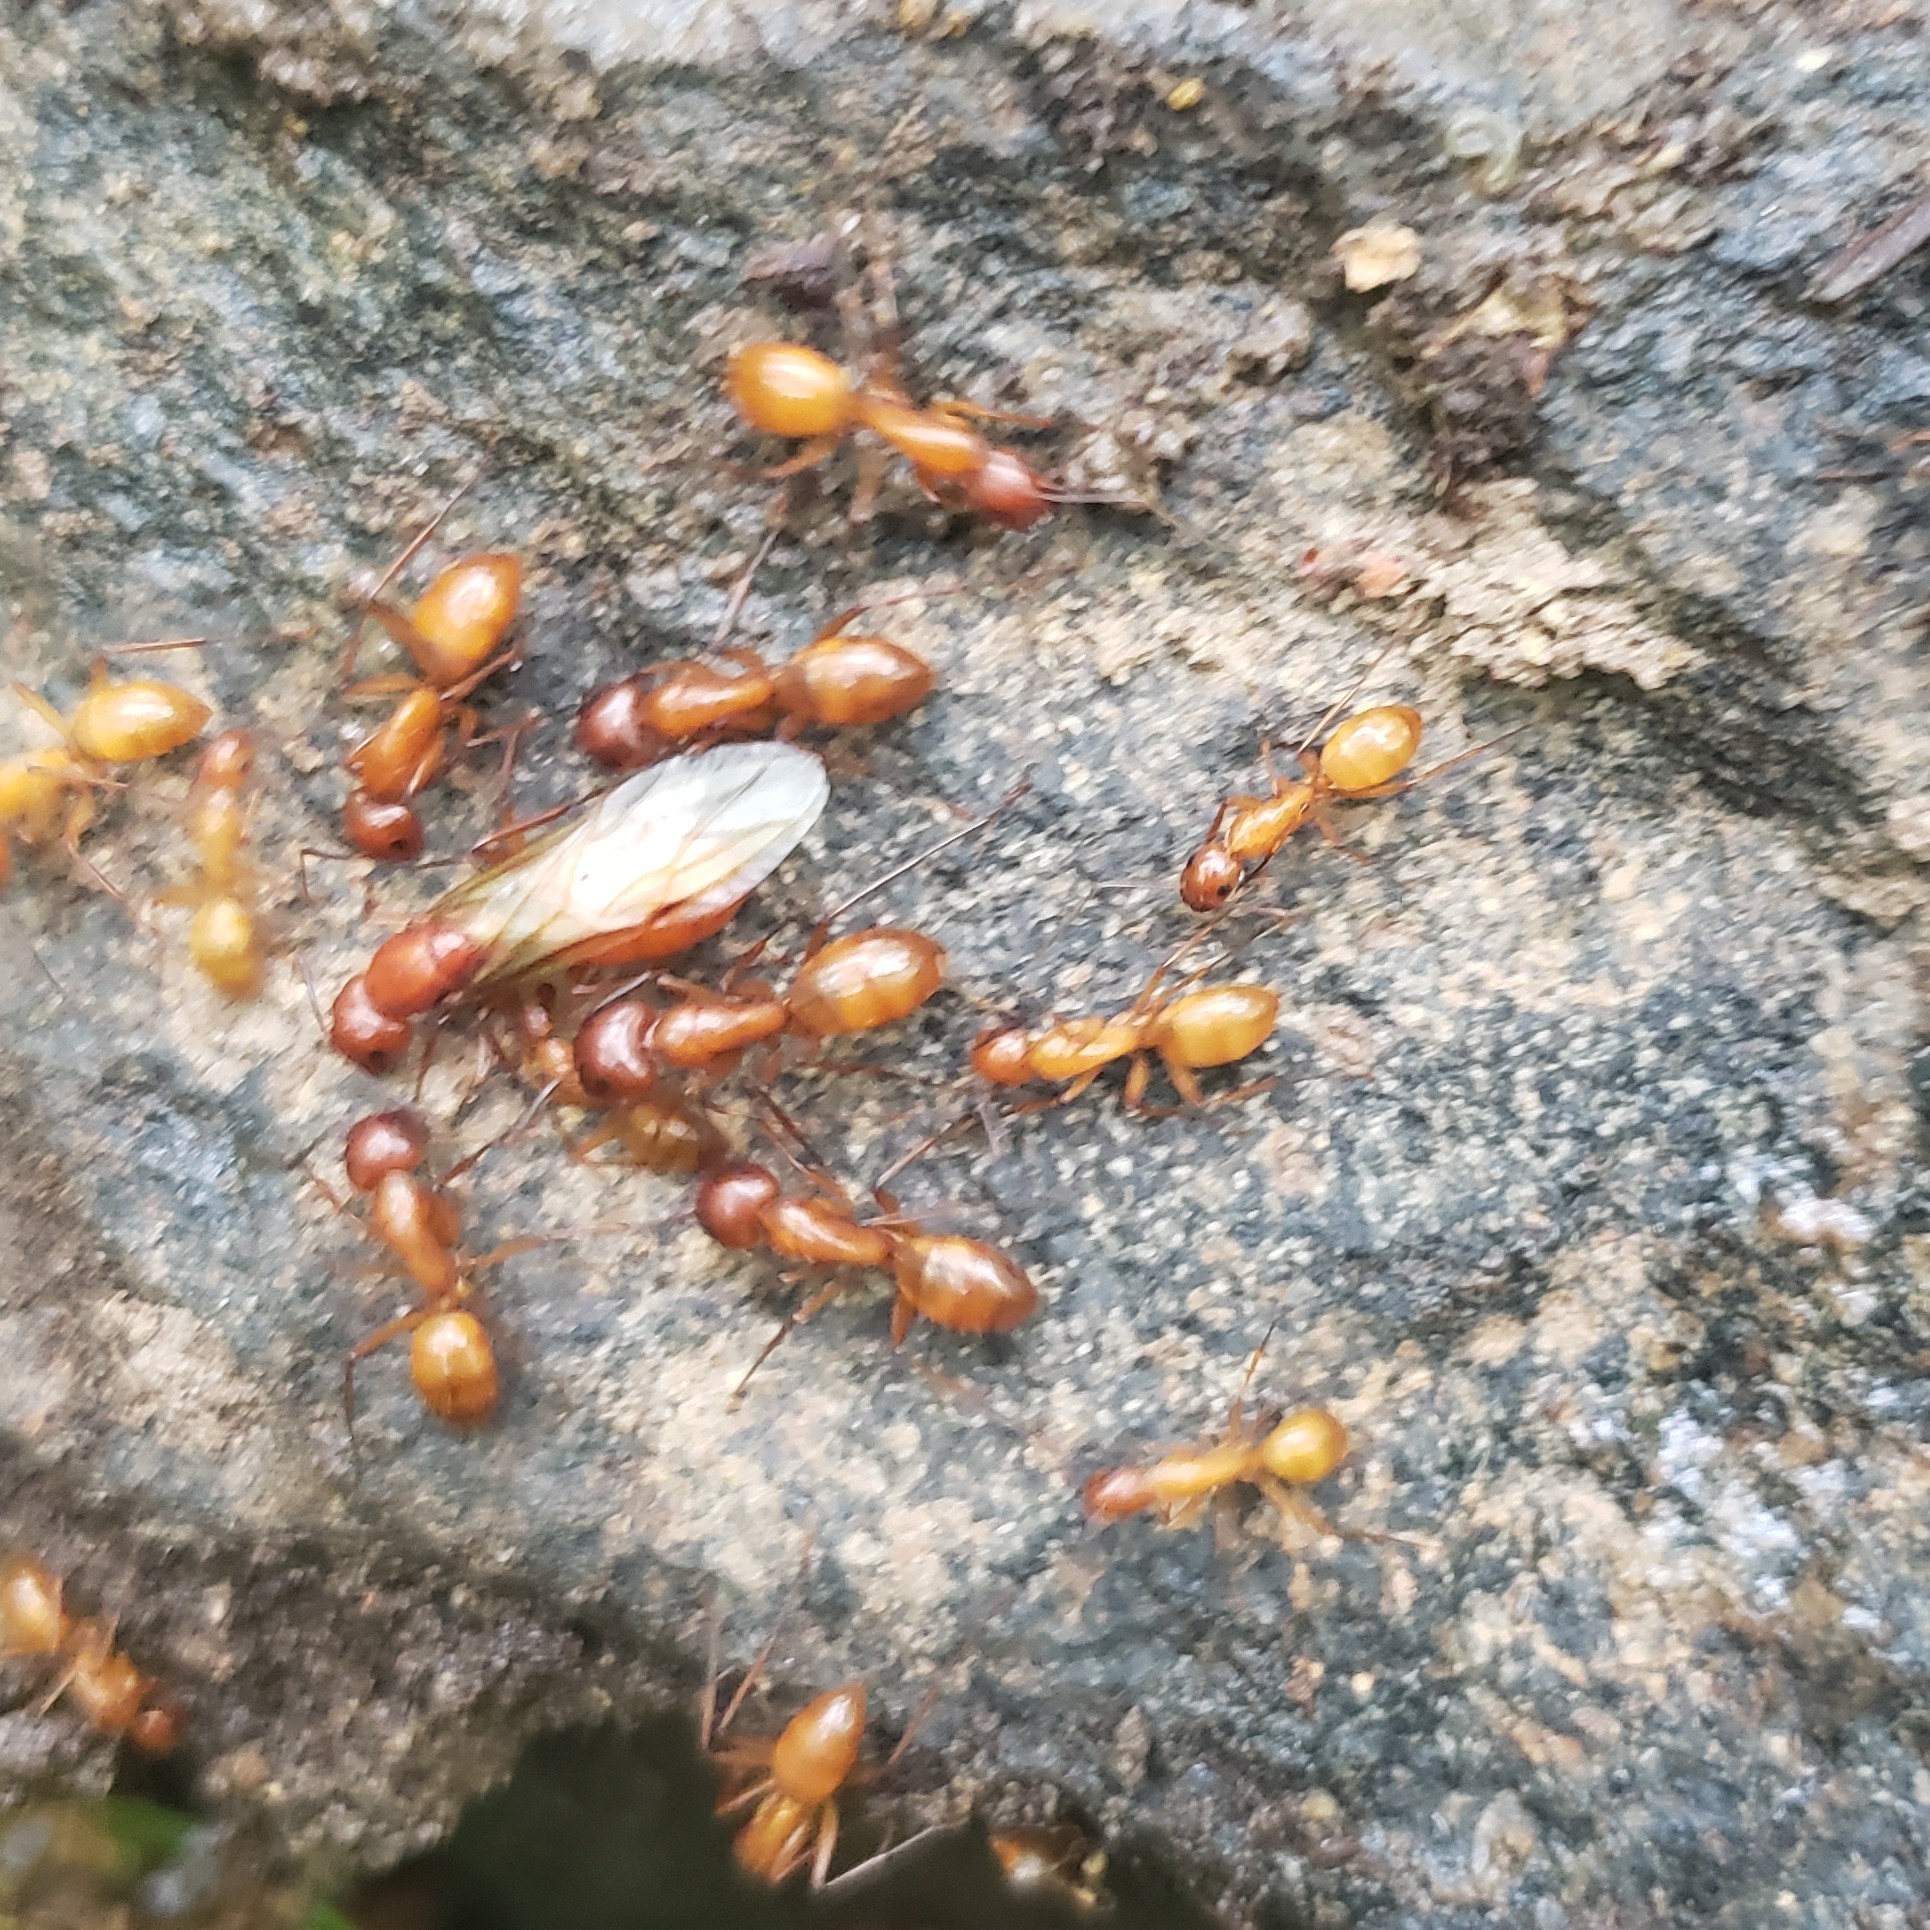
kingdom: Animalia
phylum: Arthropoda
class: Insecta
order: Hymenoptera
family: Formicidae
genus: Camponotus
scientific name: Camponotus castaneus
